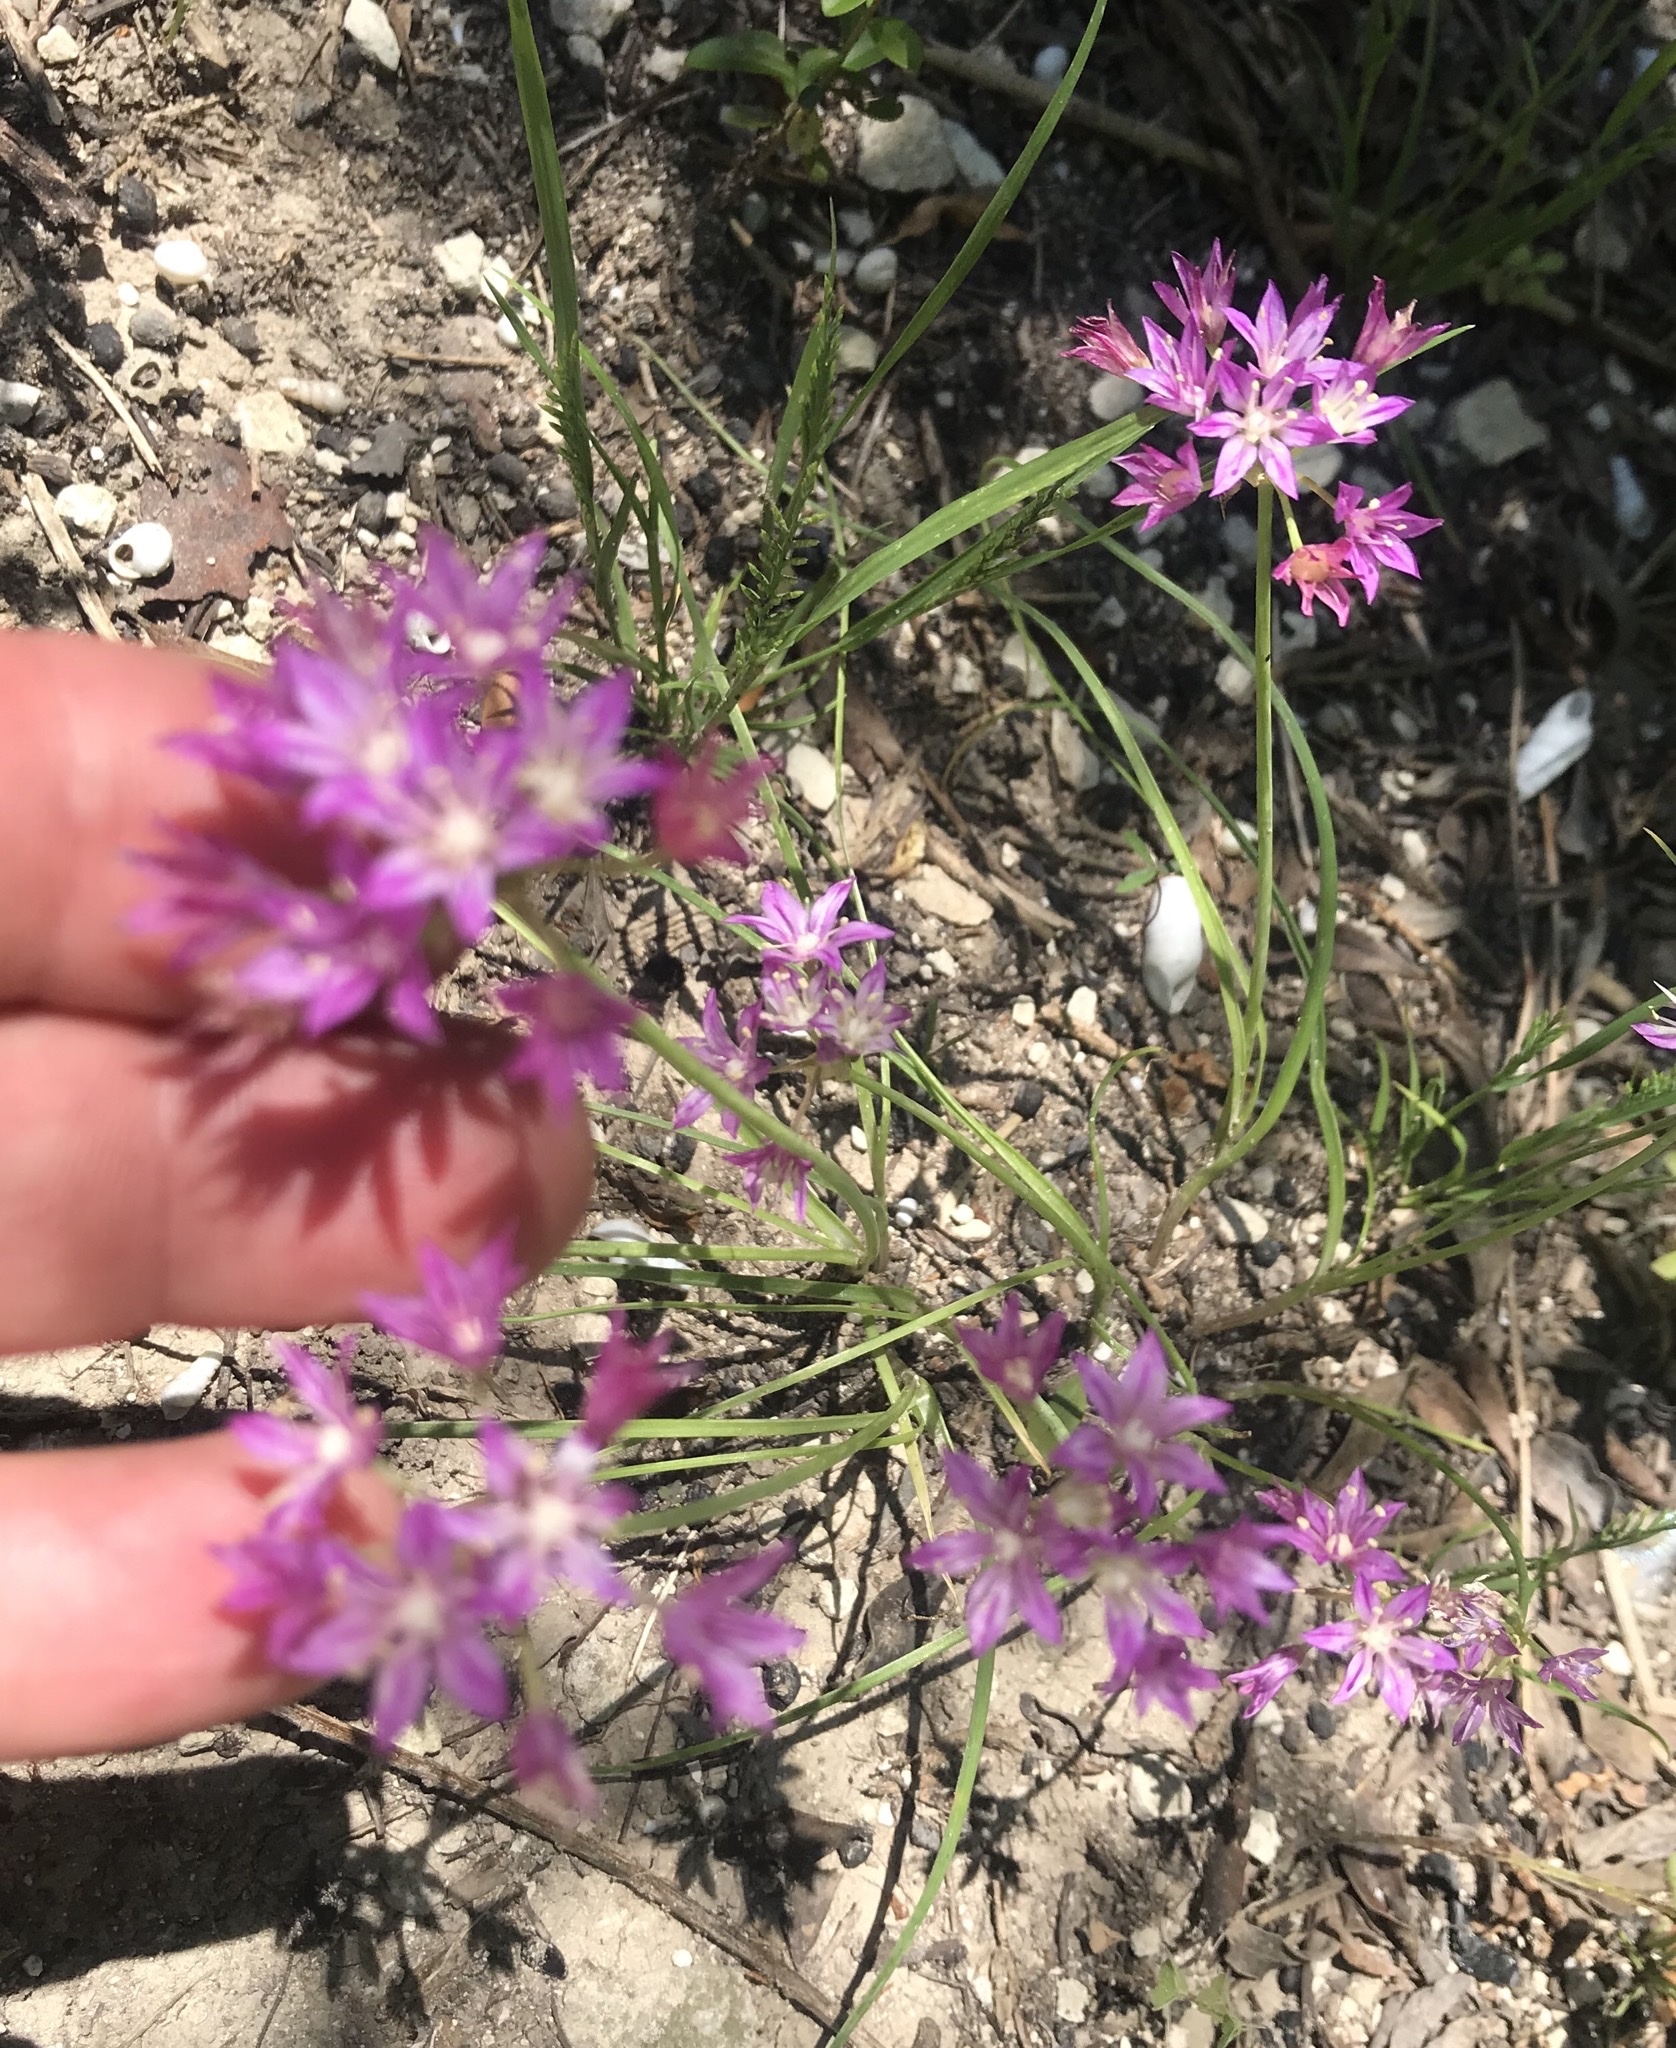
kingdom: Plantae
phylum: Tracheophyta
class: Liliopsida
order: Asparagales
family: Amaryllidaceae
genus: Allium
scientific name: Allium drummondii
